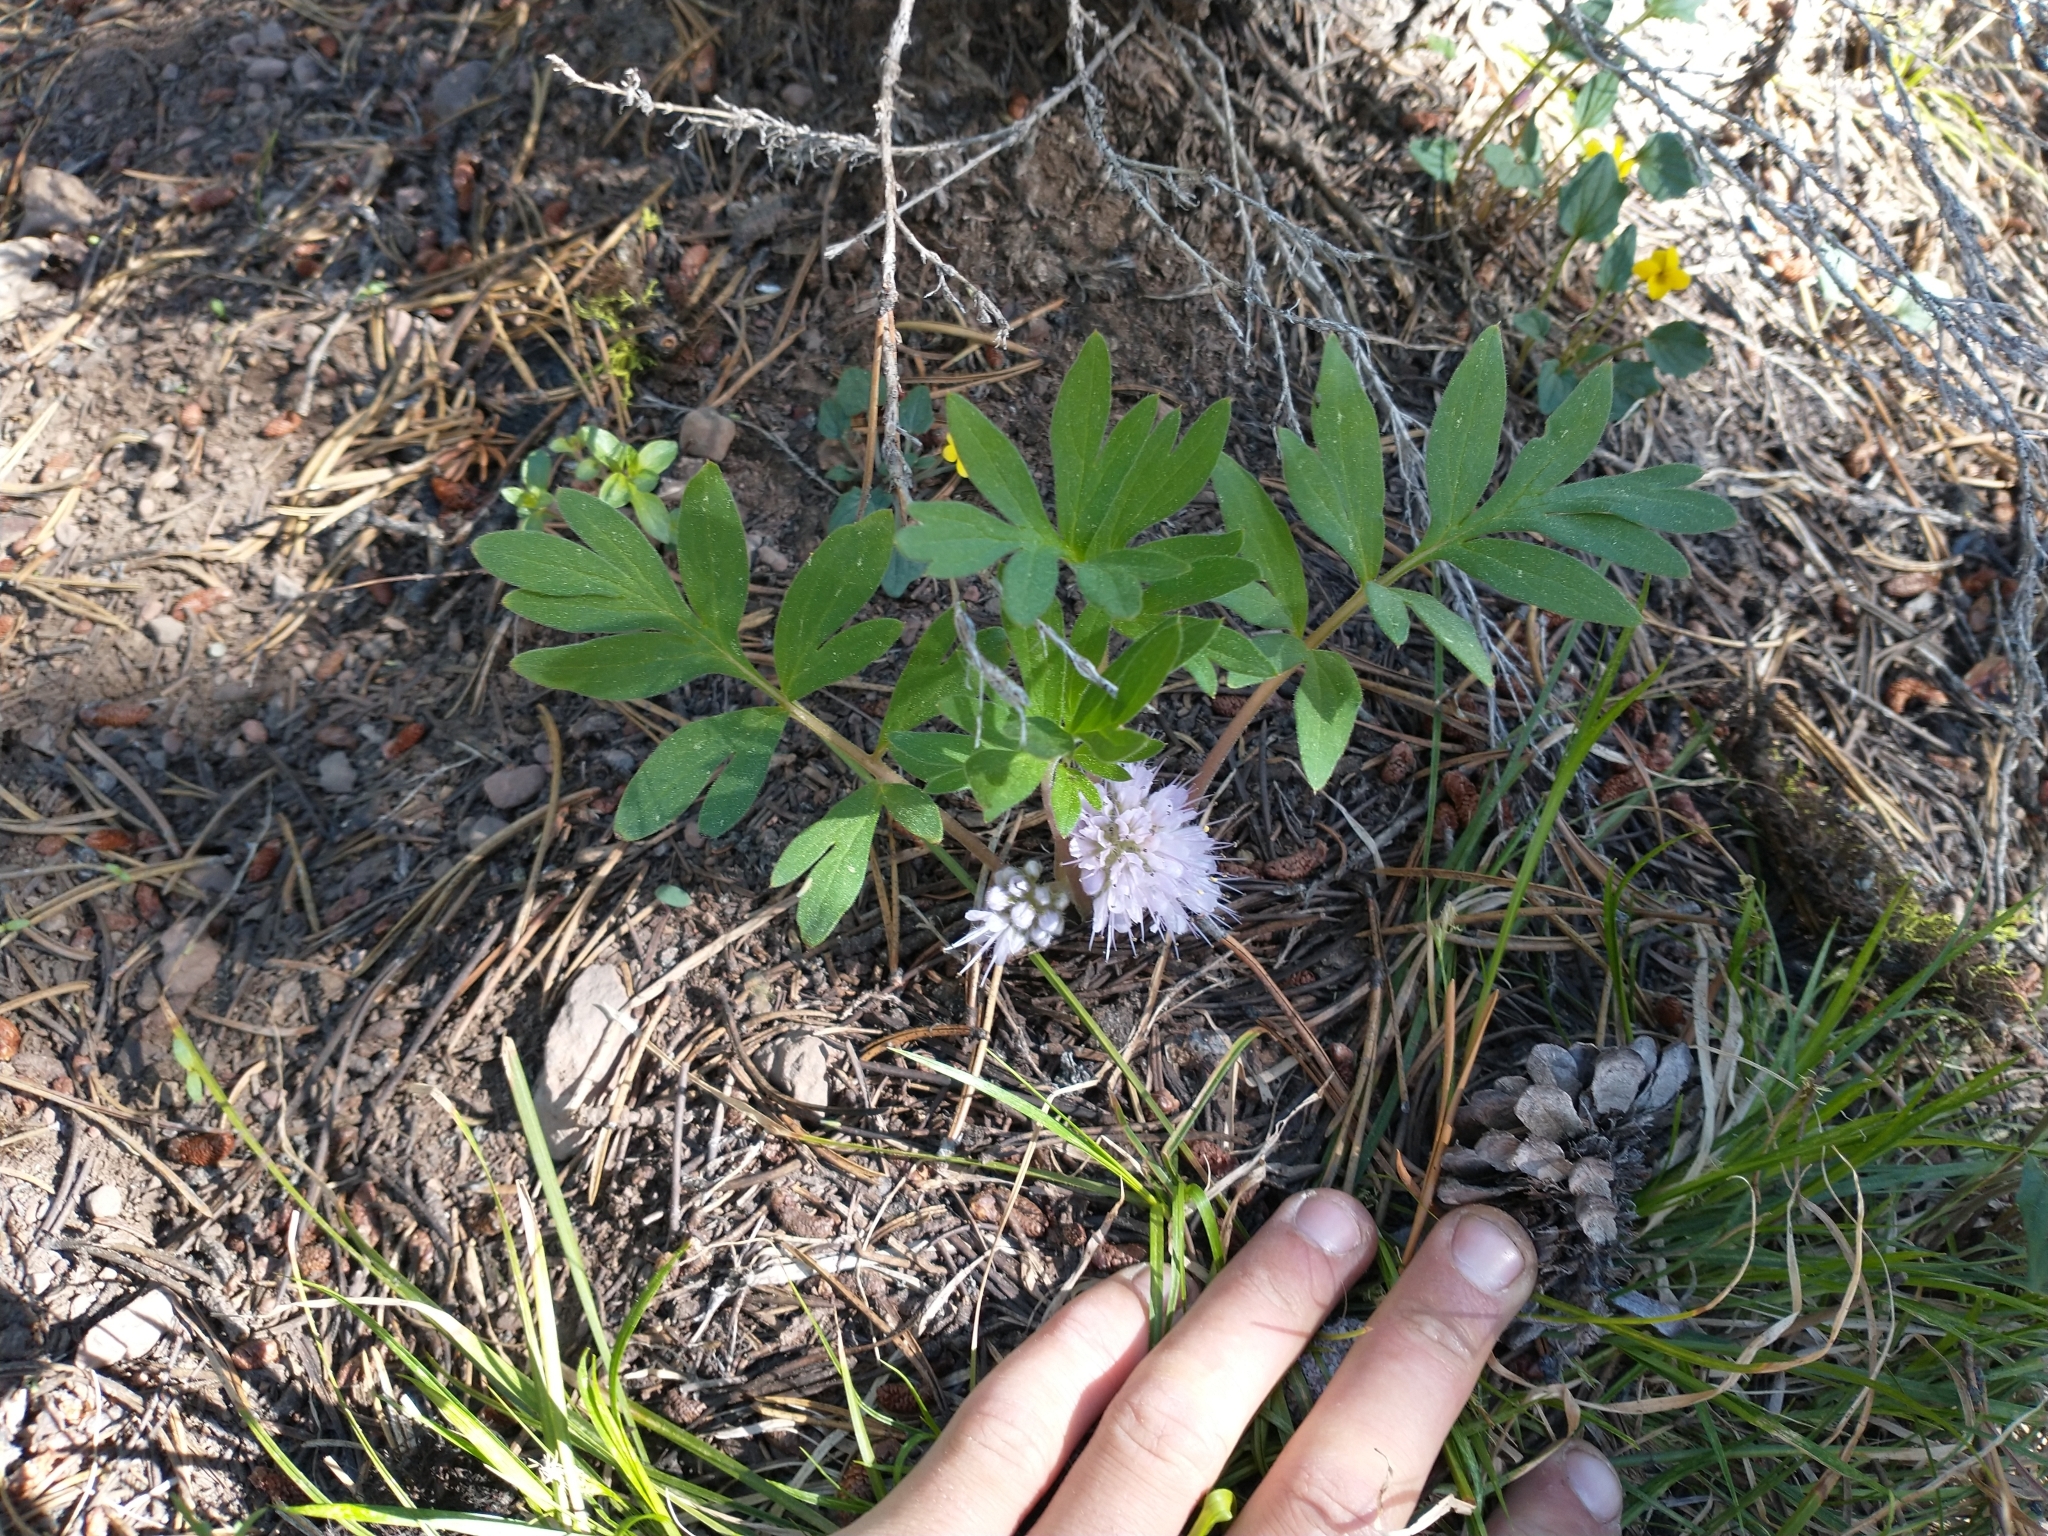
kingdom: Plantae
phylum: Tracheophyta
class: Magnoliopsida
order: Boraginales
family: Hydrophyllaceae
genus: Hydrophyllum
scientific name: Hydrophyllum alpestre
